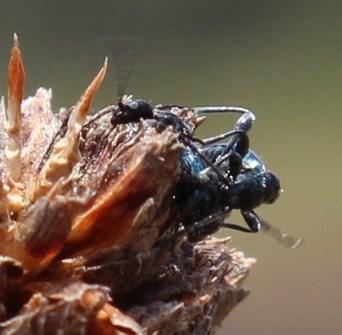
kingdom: Animalia
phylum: Arthropoda
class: Insecta
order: Coleoptera
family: Anthicidae
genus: Anthelephila
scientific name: Anthelephila
